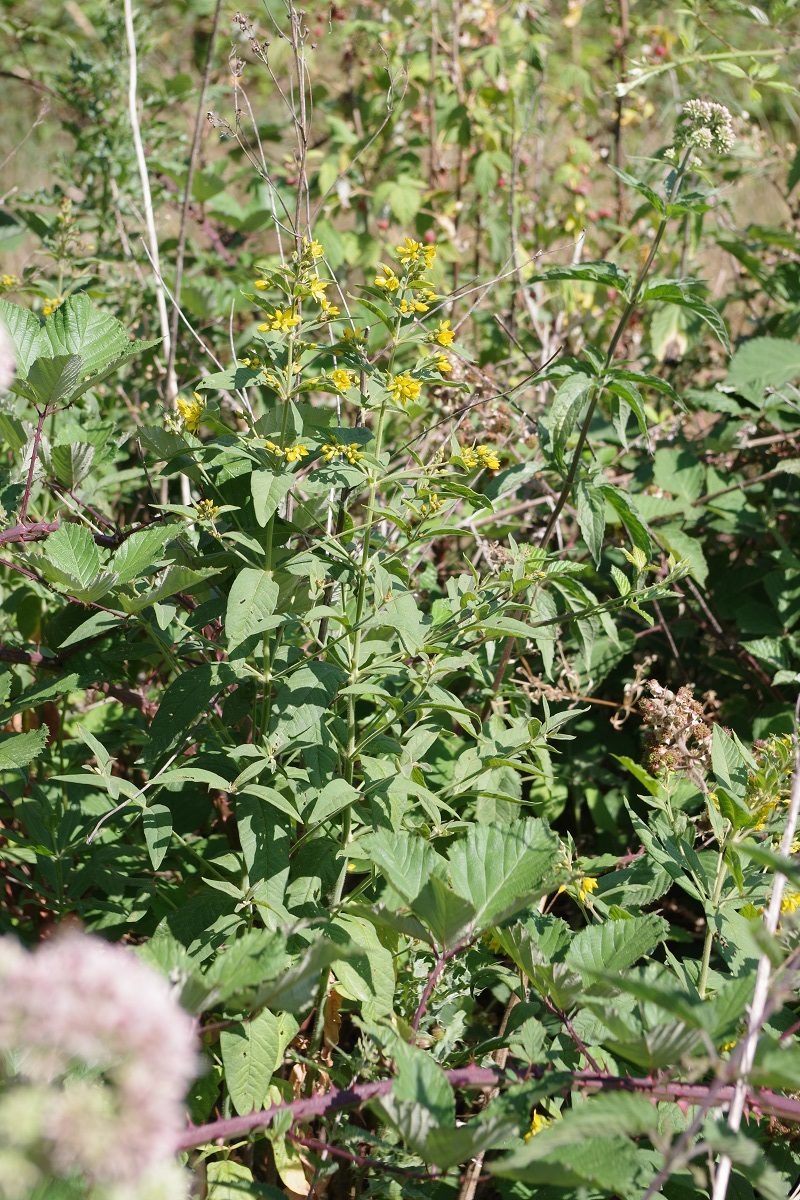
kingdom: Plantae
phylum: Tracheophyta
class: Magnoliopsida
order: Ericales
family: Primulaceae
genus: Lysimachia
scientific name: Lysimachia vulgaris
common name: Yellow loosestrife
